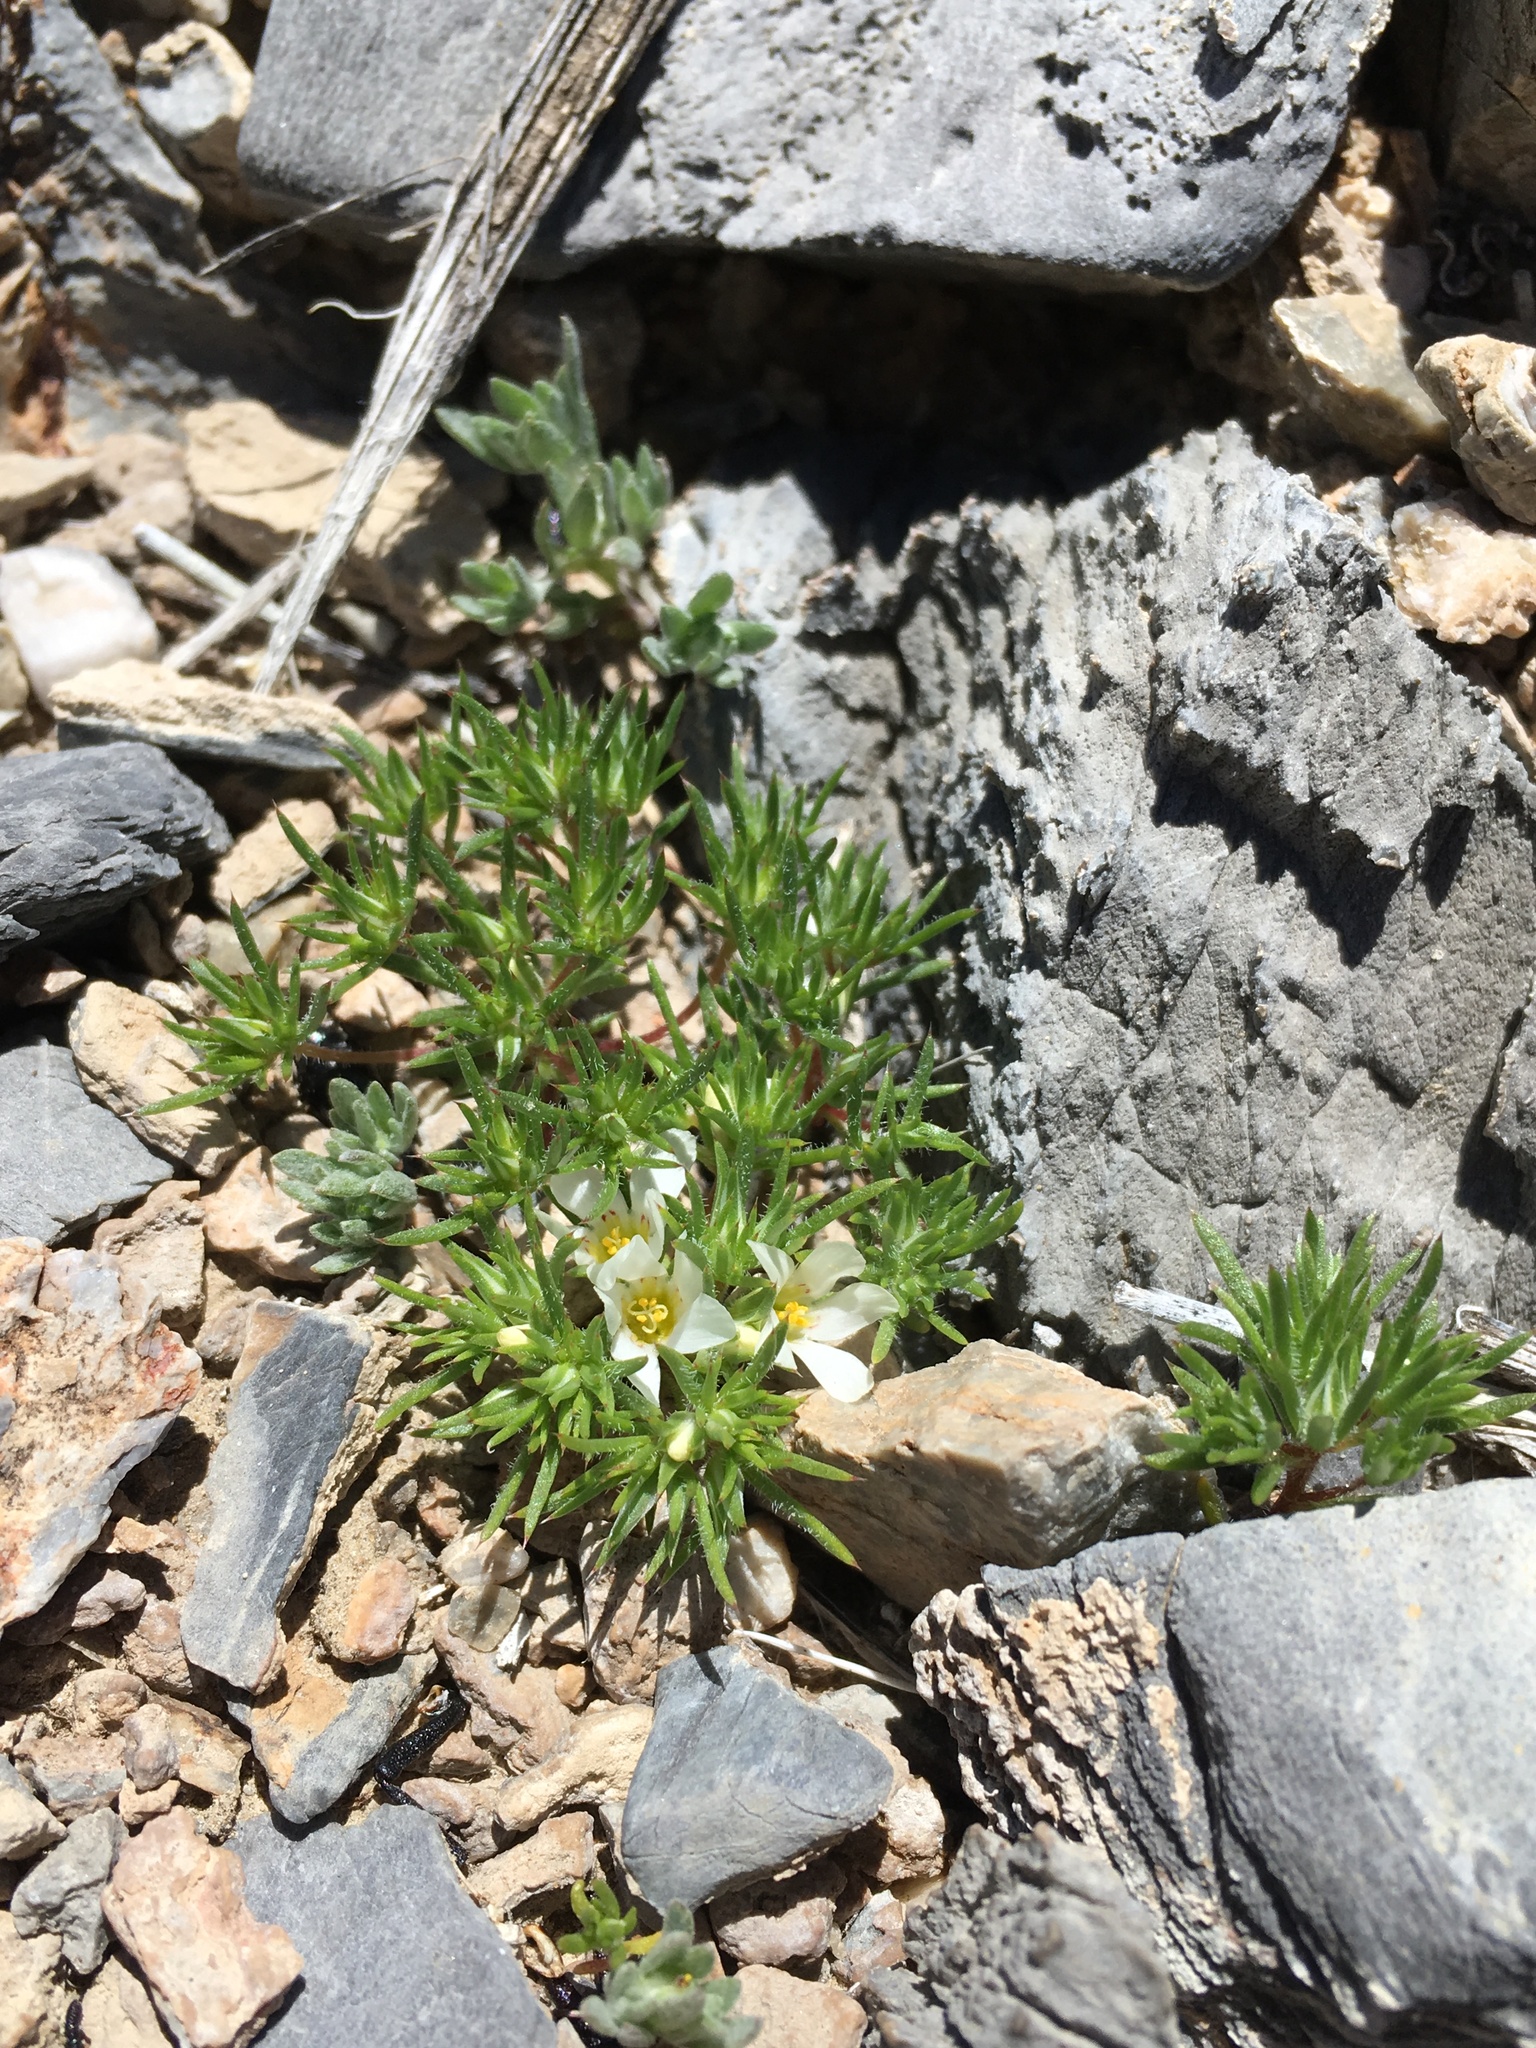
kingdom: Plantae
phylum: Tracheophyta
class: Magnoliopsida
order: Ericales
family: Polemoniaceae
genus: Linanthus
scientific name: Linanthus demissus
